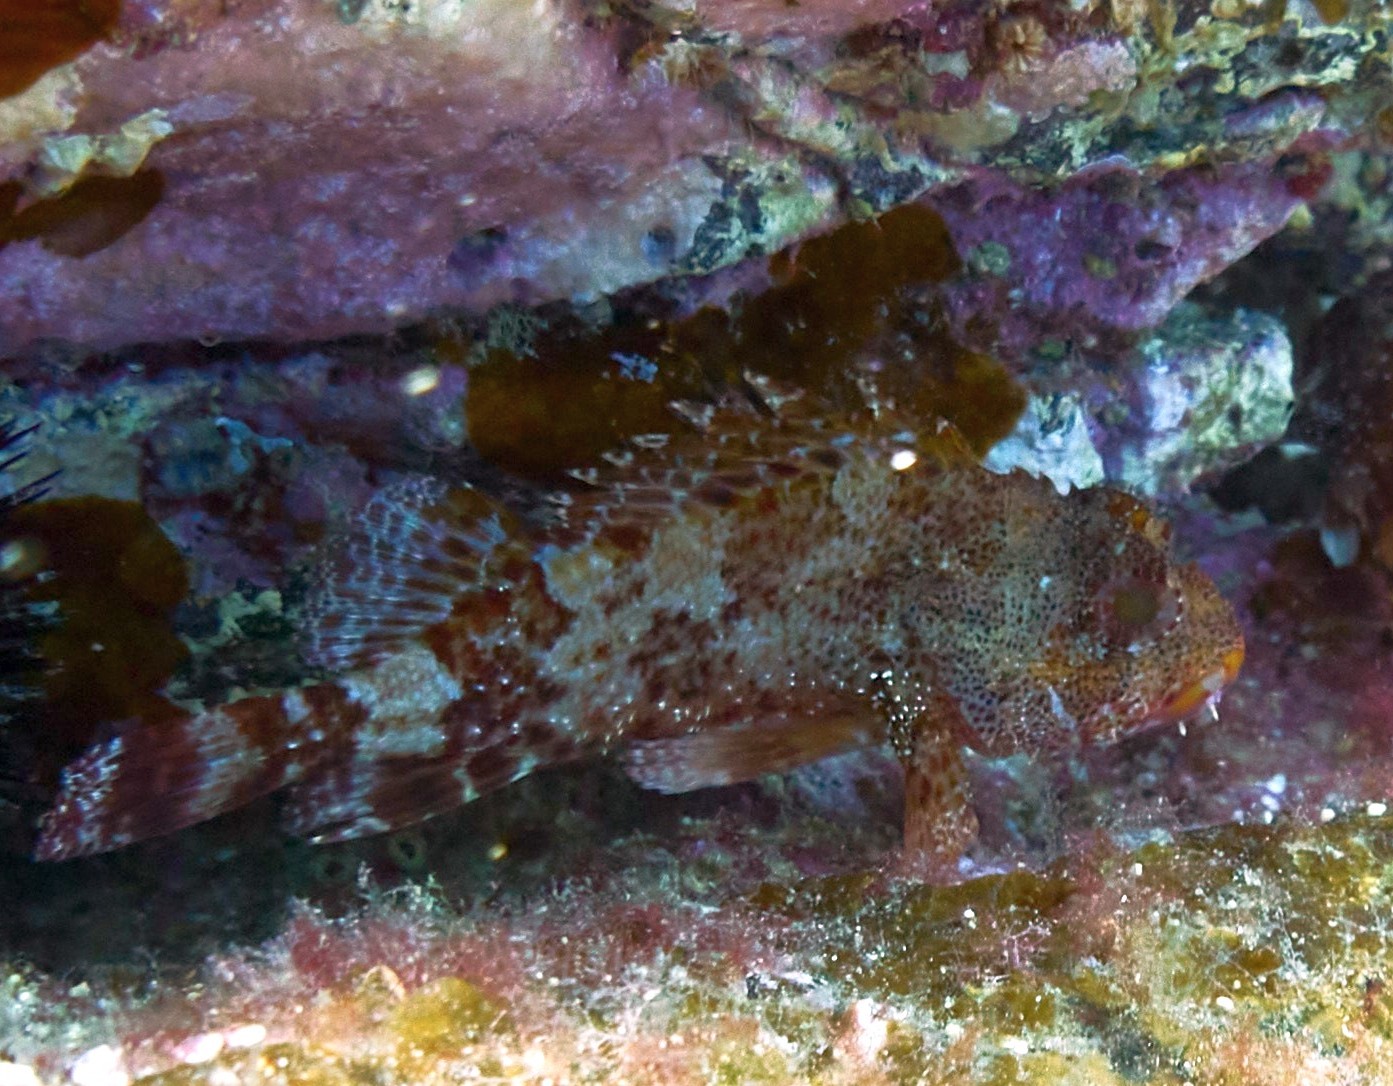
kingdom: Animalia
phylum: Chordata
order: Scorpaeniformes
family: Scorpaenidae
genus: Scorpaena
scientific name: Scorpaena maderensis
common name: Madeira rockfish
